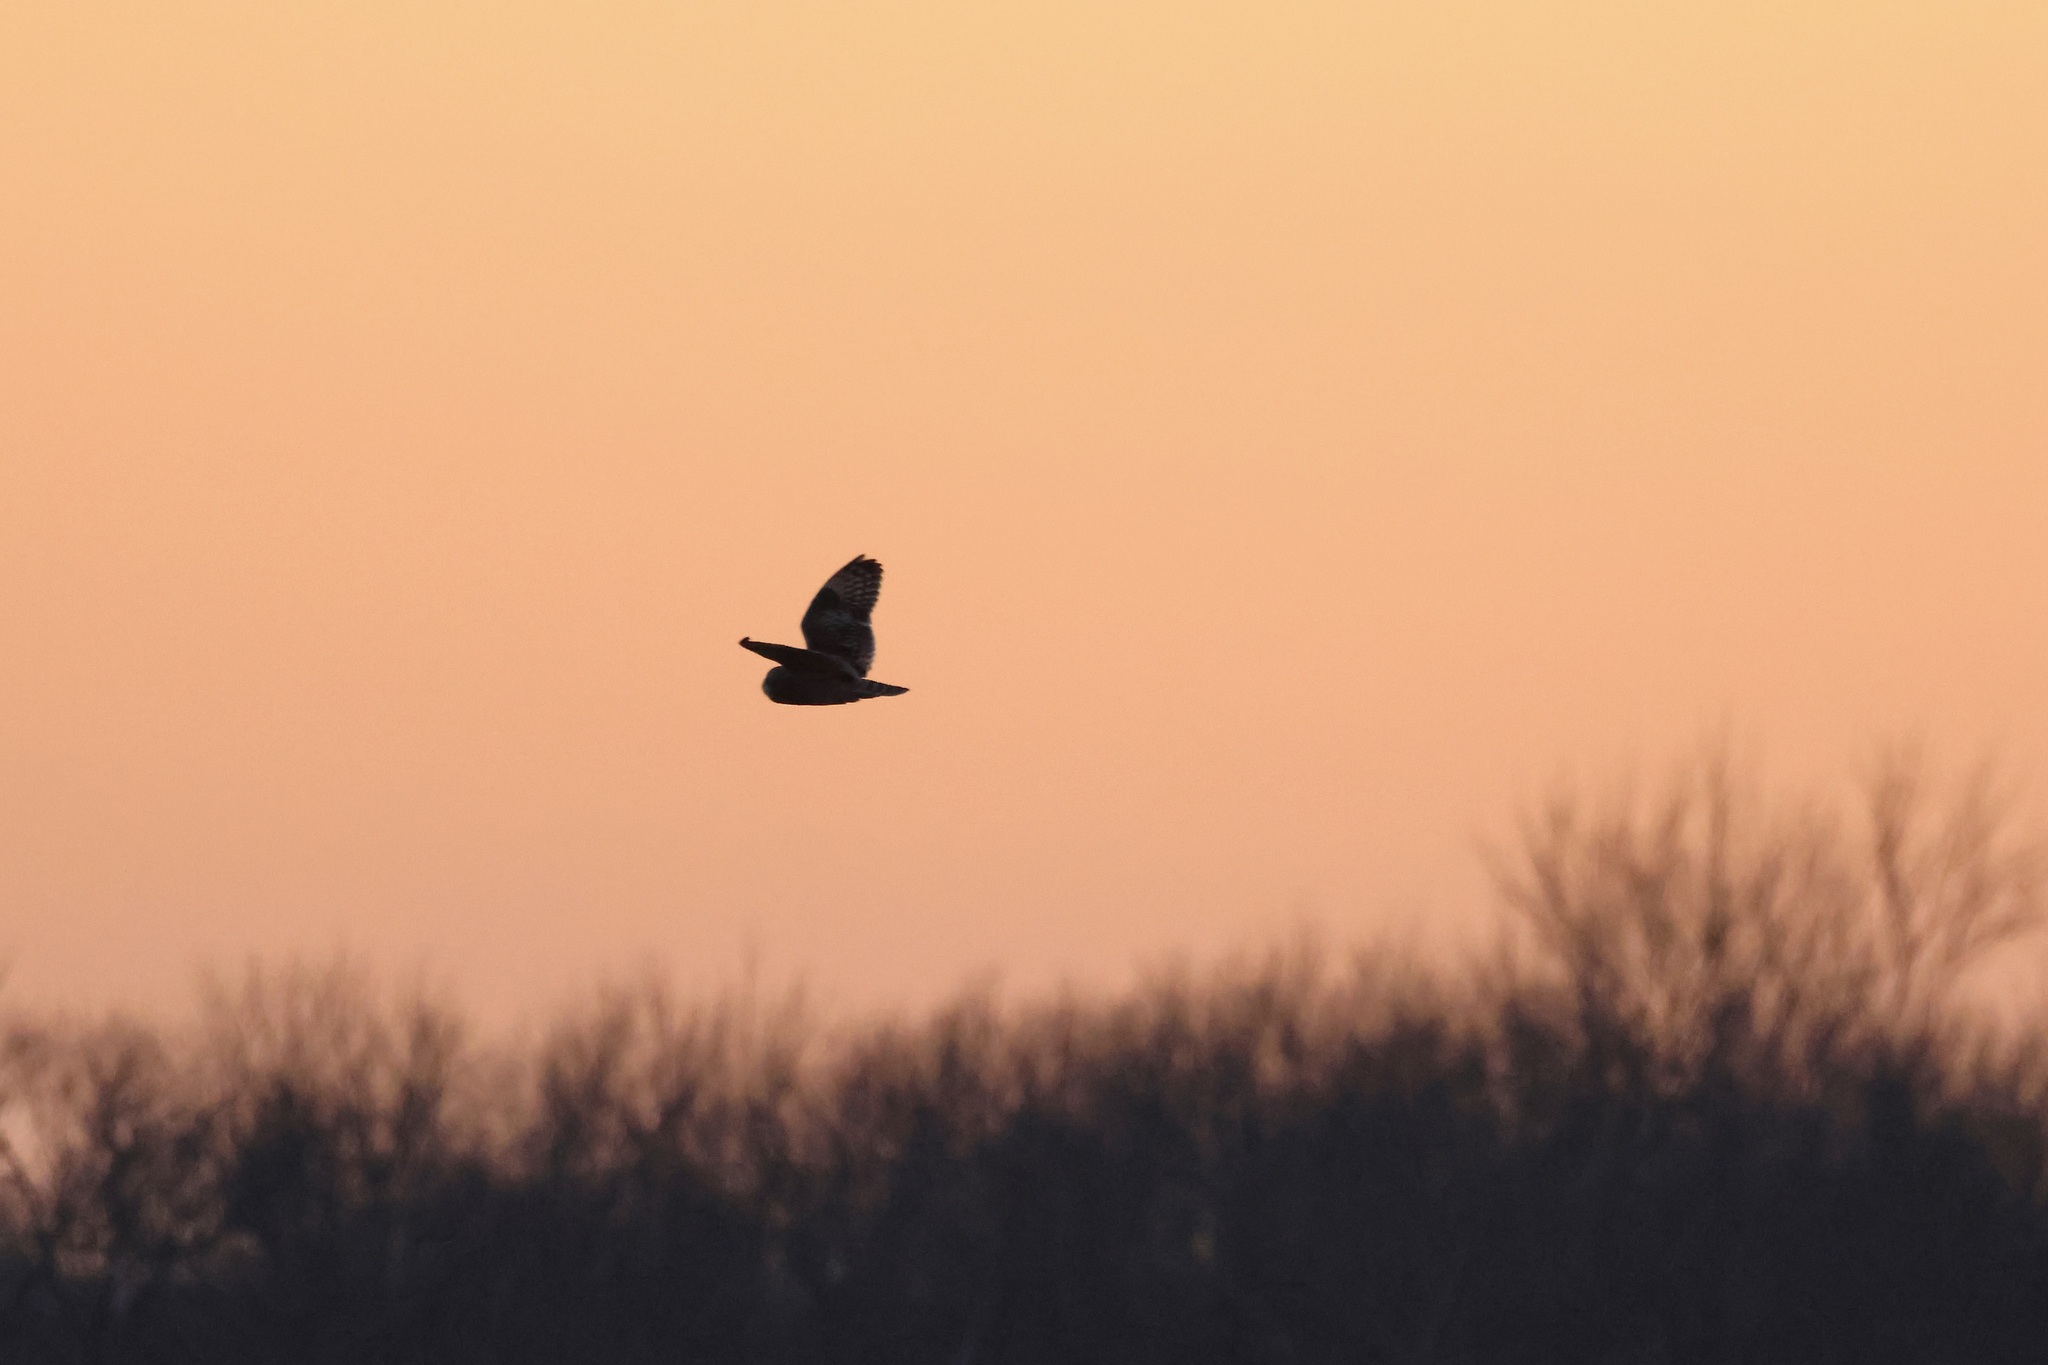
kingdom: Animalia
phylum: Chordata
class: Aves
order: Strigiformes
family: Strigidae
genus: Asio
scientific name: Asio flammeus
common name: Short-eared owl
